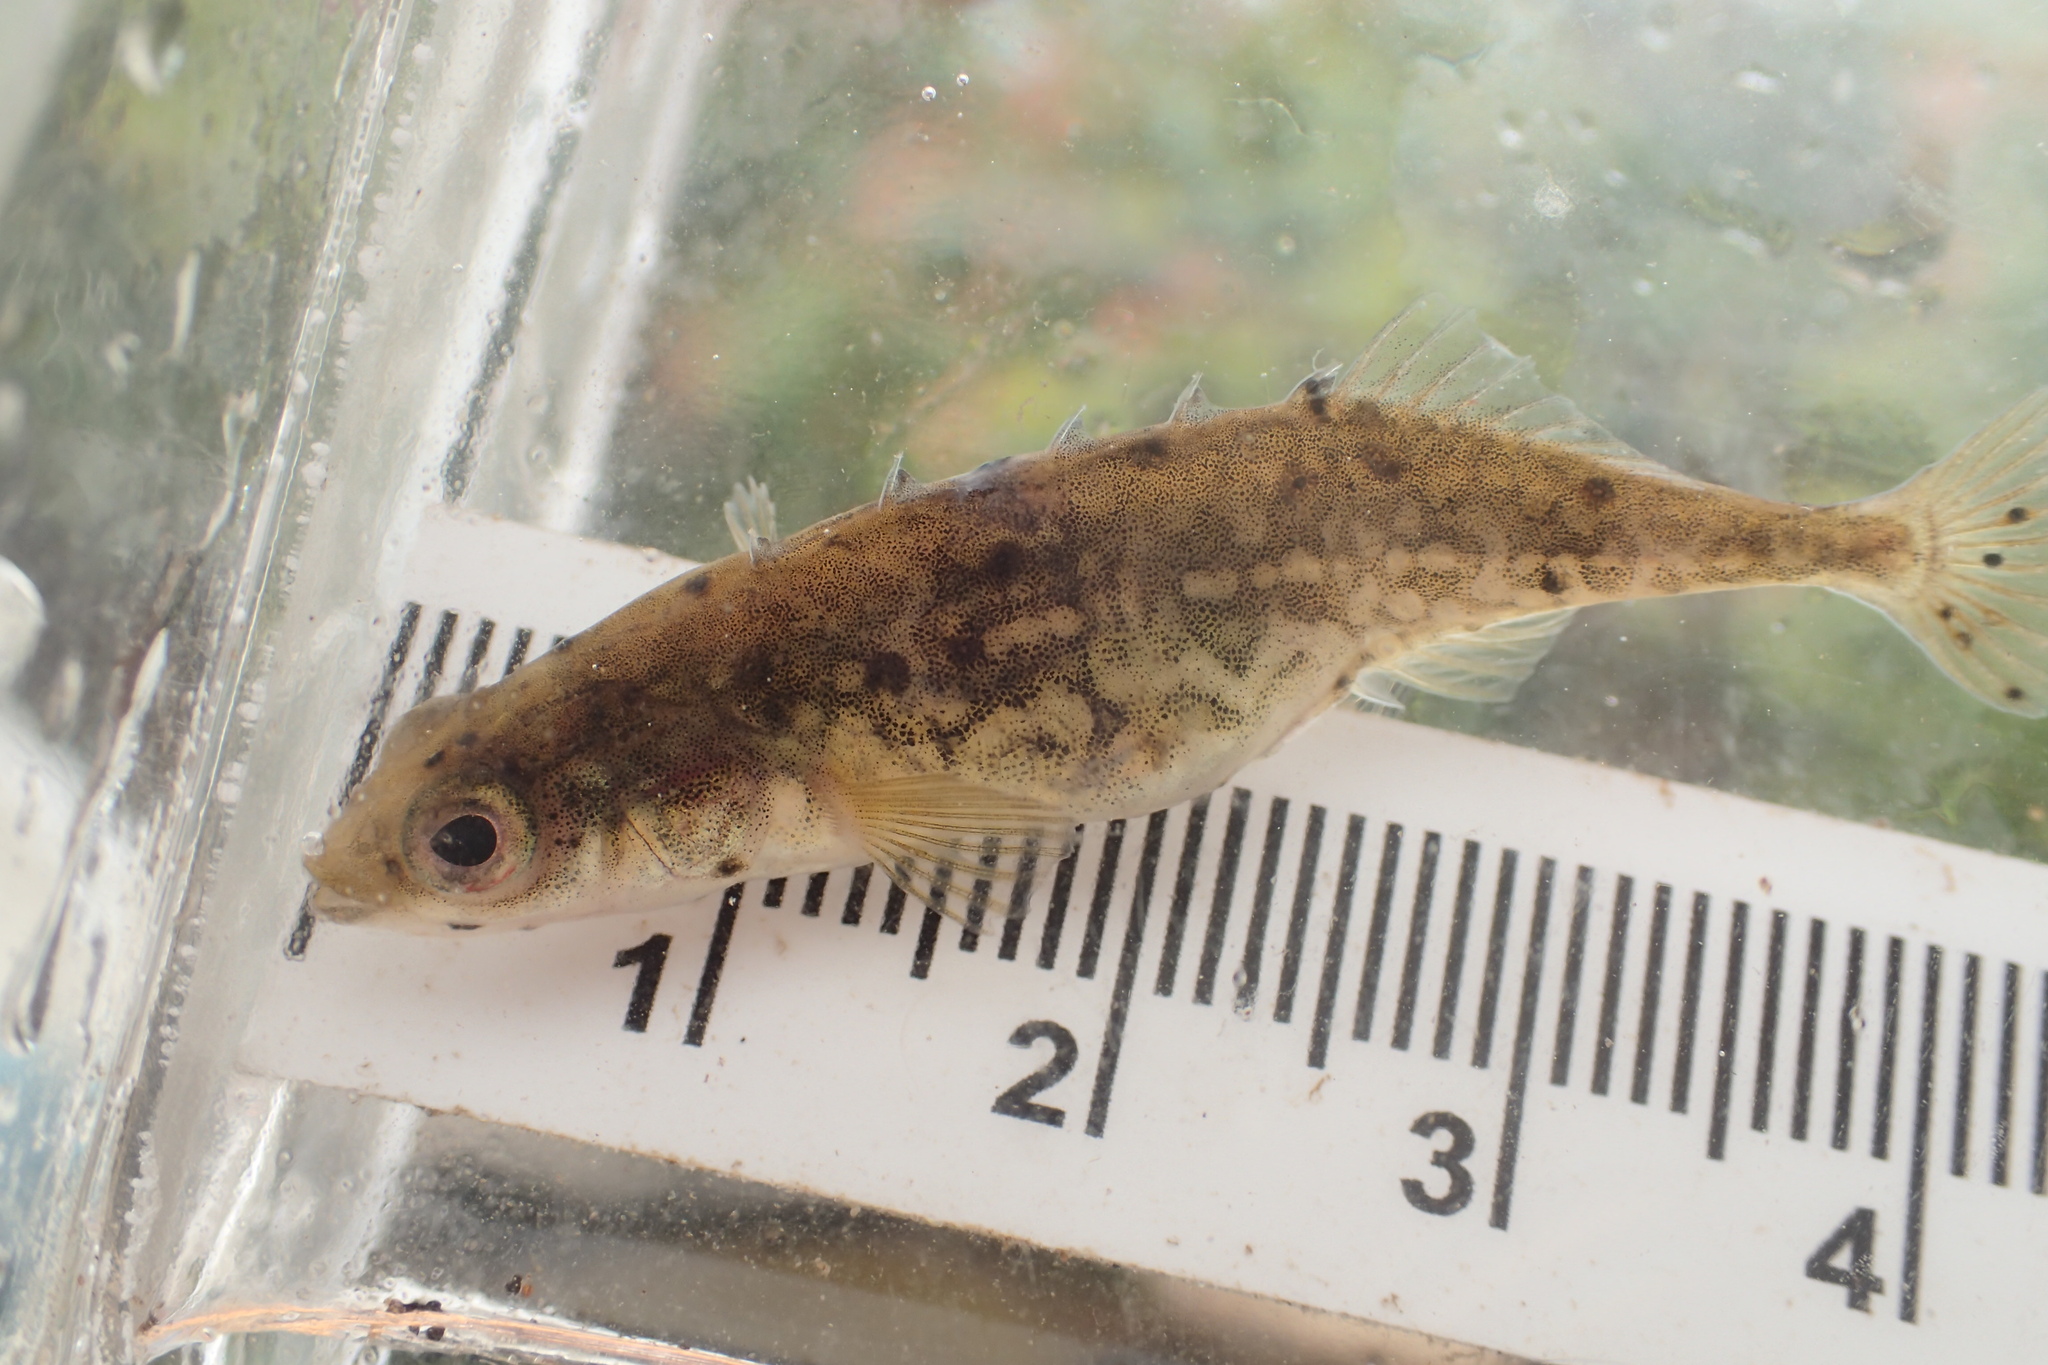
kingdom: Animalia
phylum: Chordata
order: Gasterosteiformes
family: Gasterosteidae
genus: Culaea
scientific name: Culaea inconstans
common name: Brook stickleback
